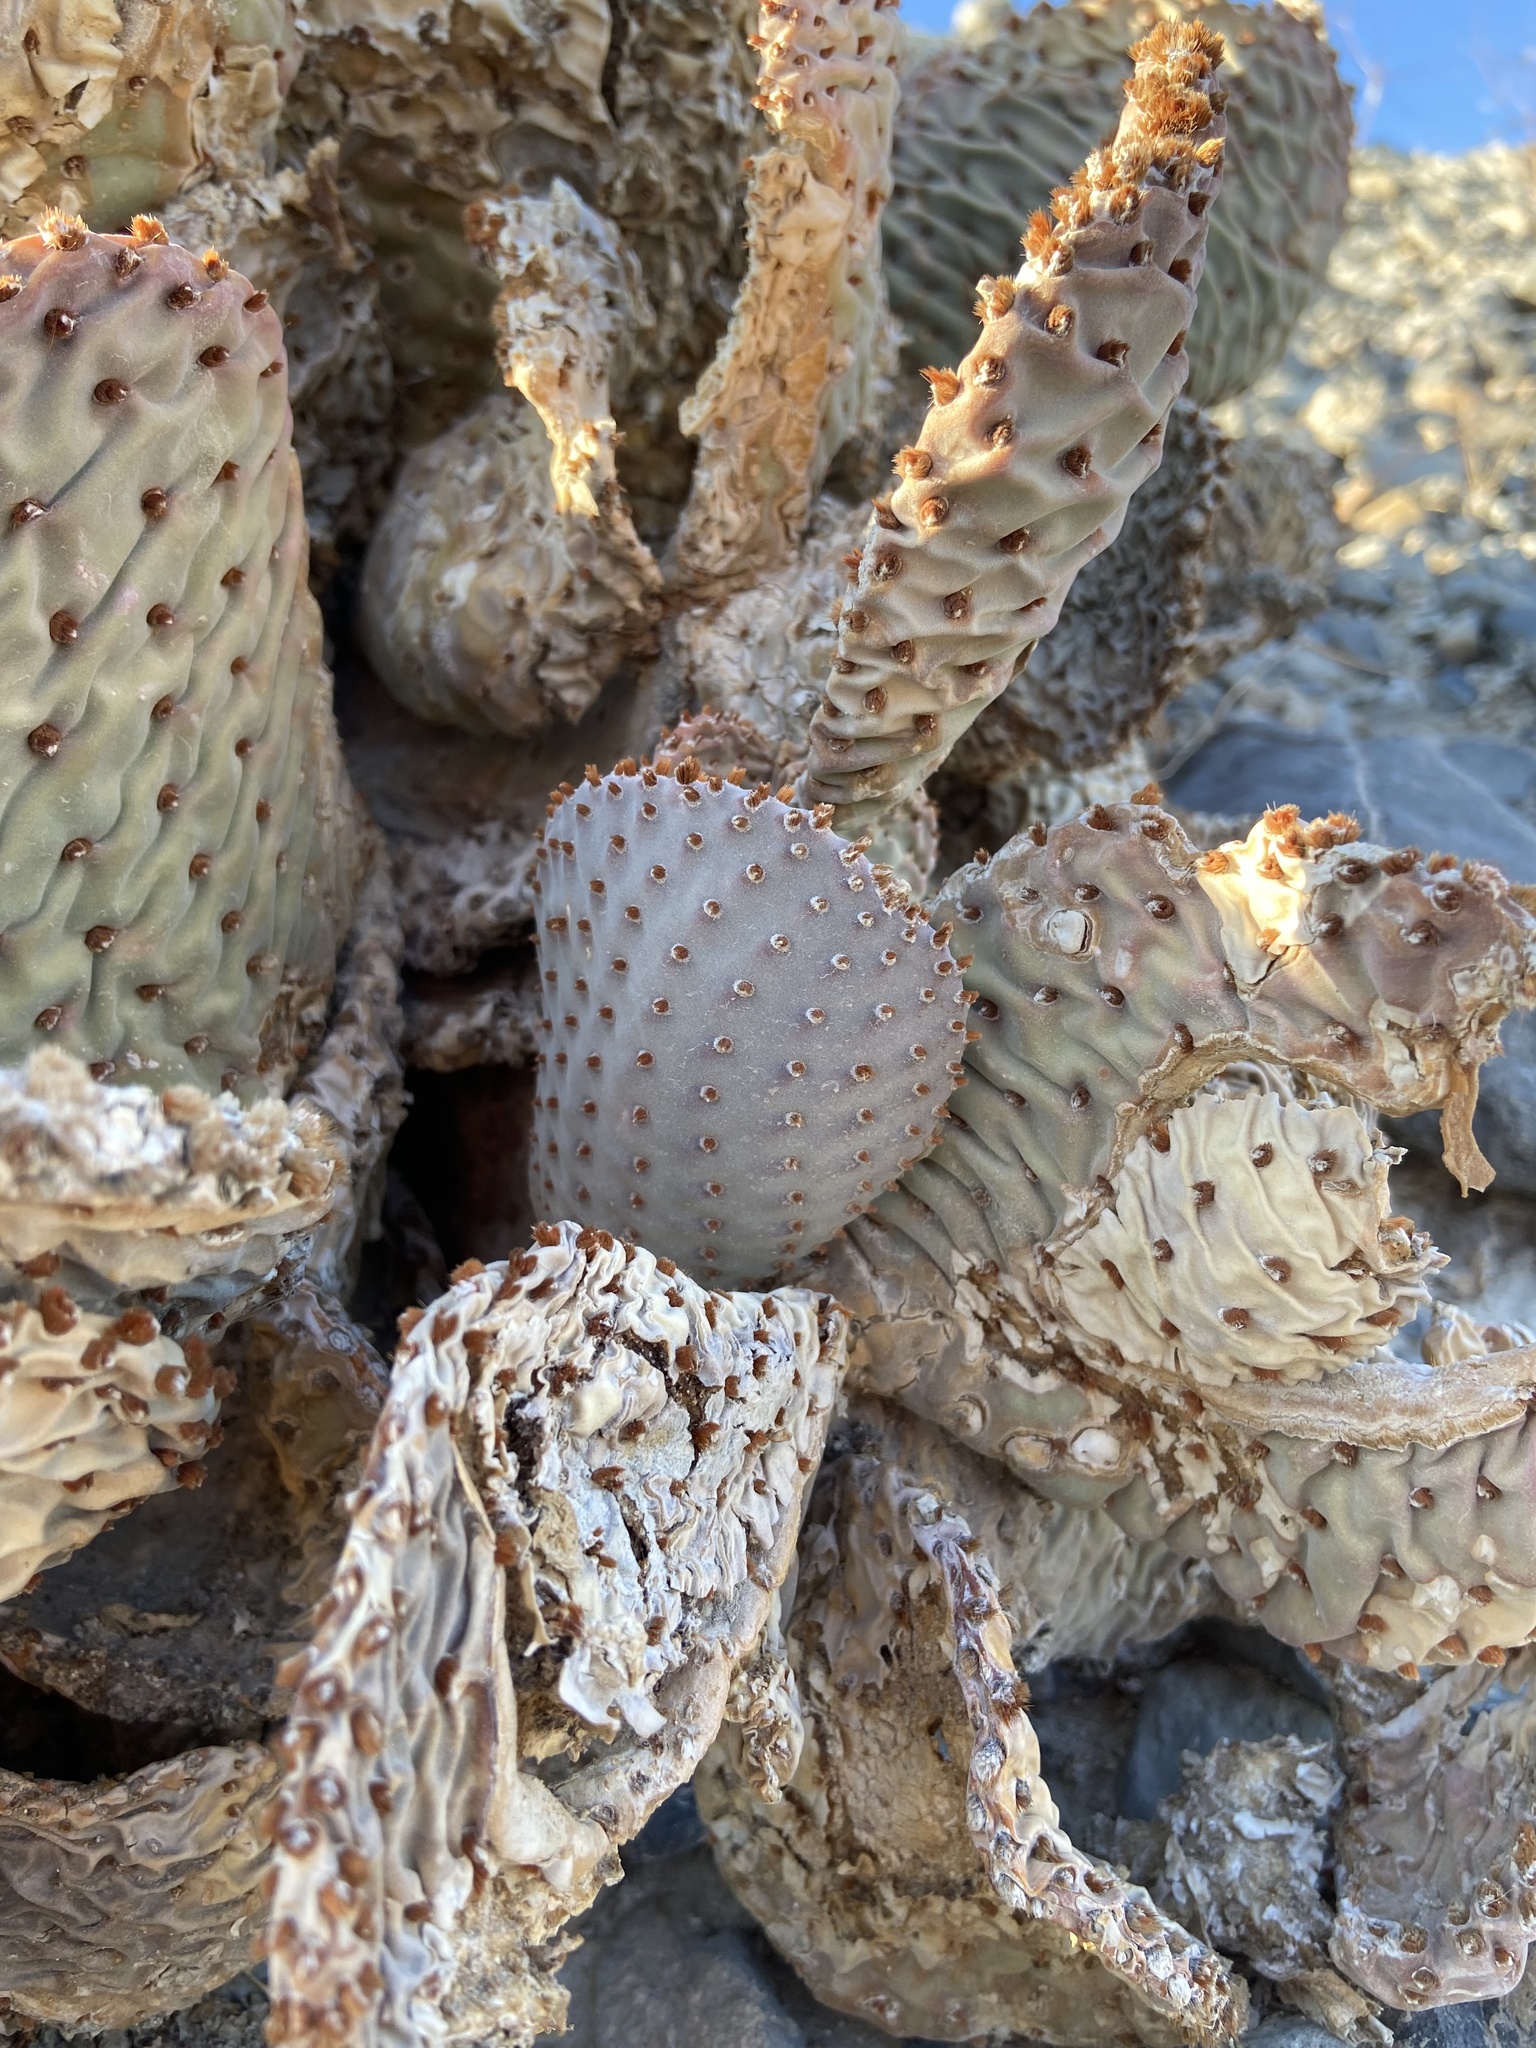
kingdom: Plantae
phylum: Tracheophyta
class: Magnoliopsida
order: Caryophyllales
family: Cactaceae
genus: Opuntia
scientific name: Opuntia basilaris
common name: Beavertail prickly-pear
